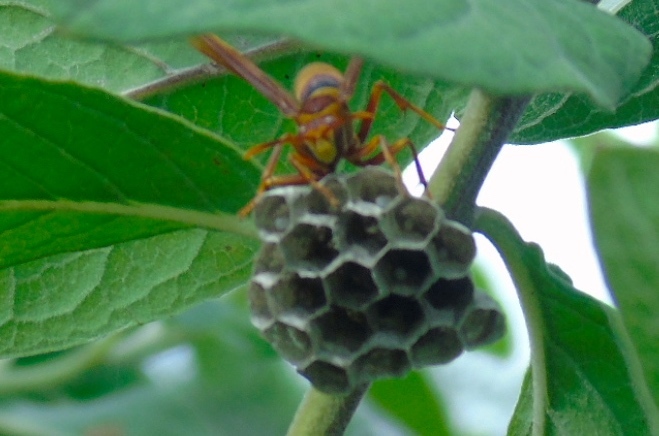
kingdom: Animalia
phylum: Arthropoda
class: Insecta
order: Hymenoptera
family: Eumenidae
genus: Polistes
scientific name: Polistes major
